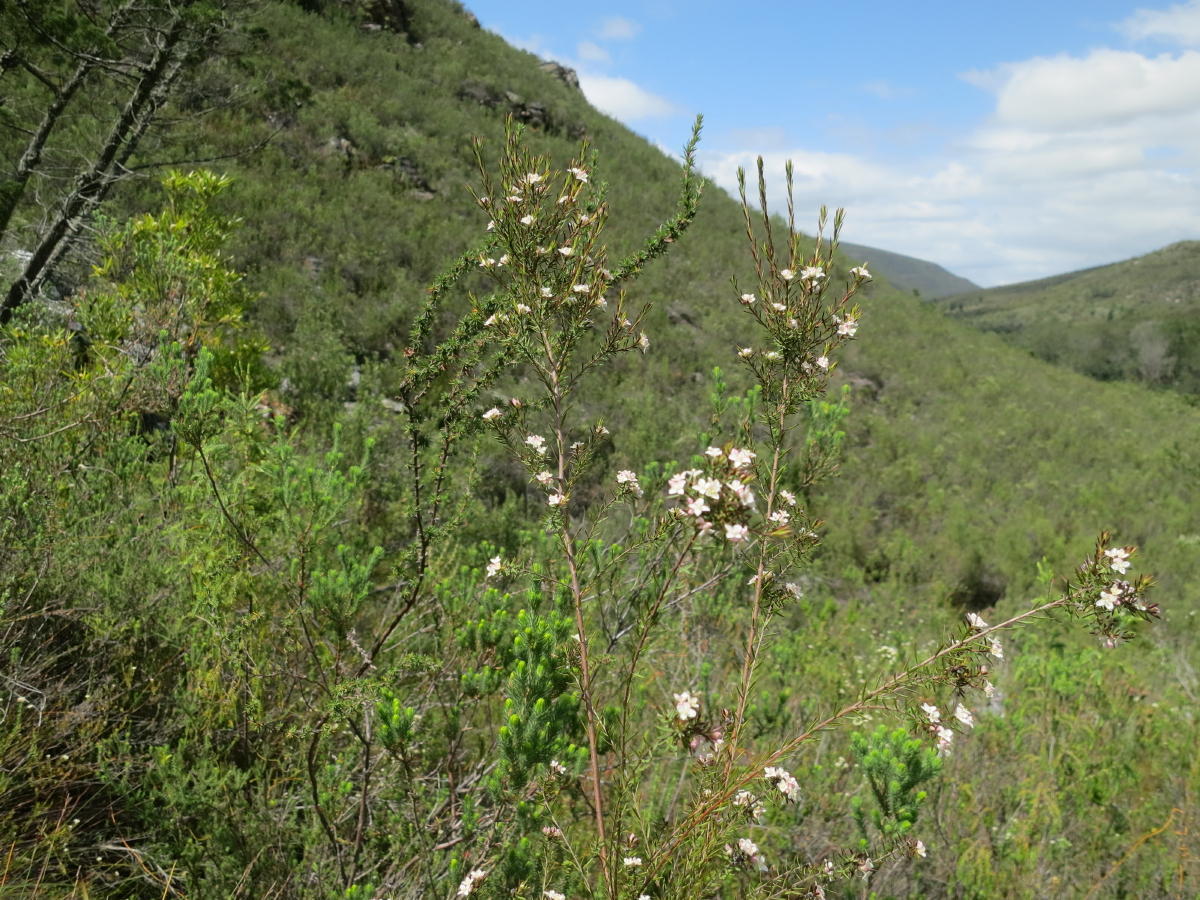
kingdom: Plantae
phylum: Tracheophyta
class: Magnoliopsida
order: Malvales
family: Thymelaeaceae
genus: Lachnaea
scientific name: Lachnaea diosmoides
